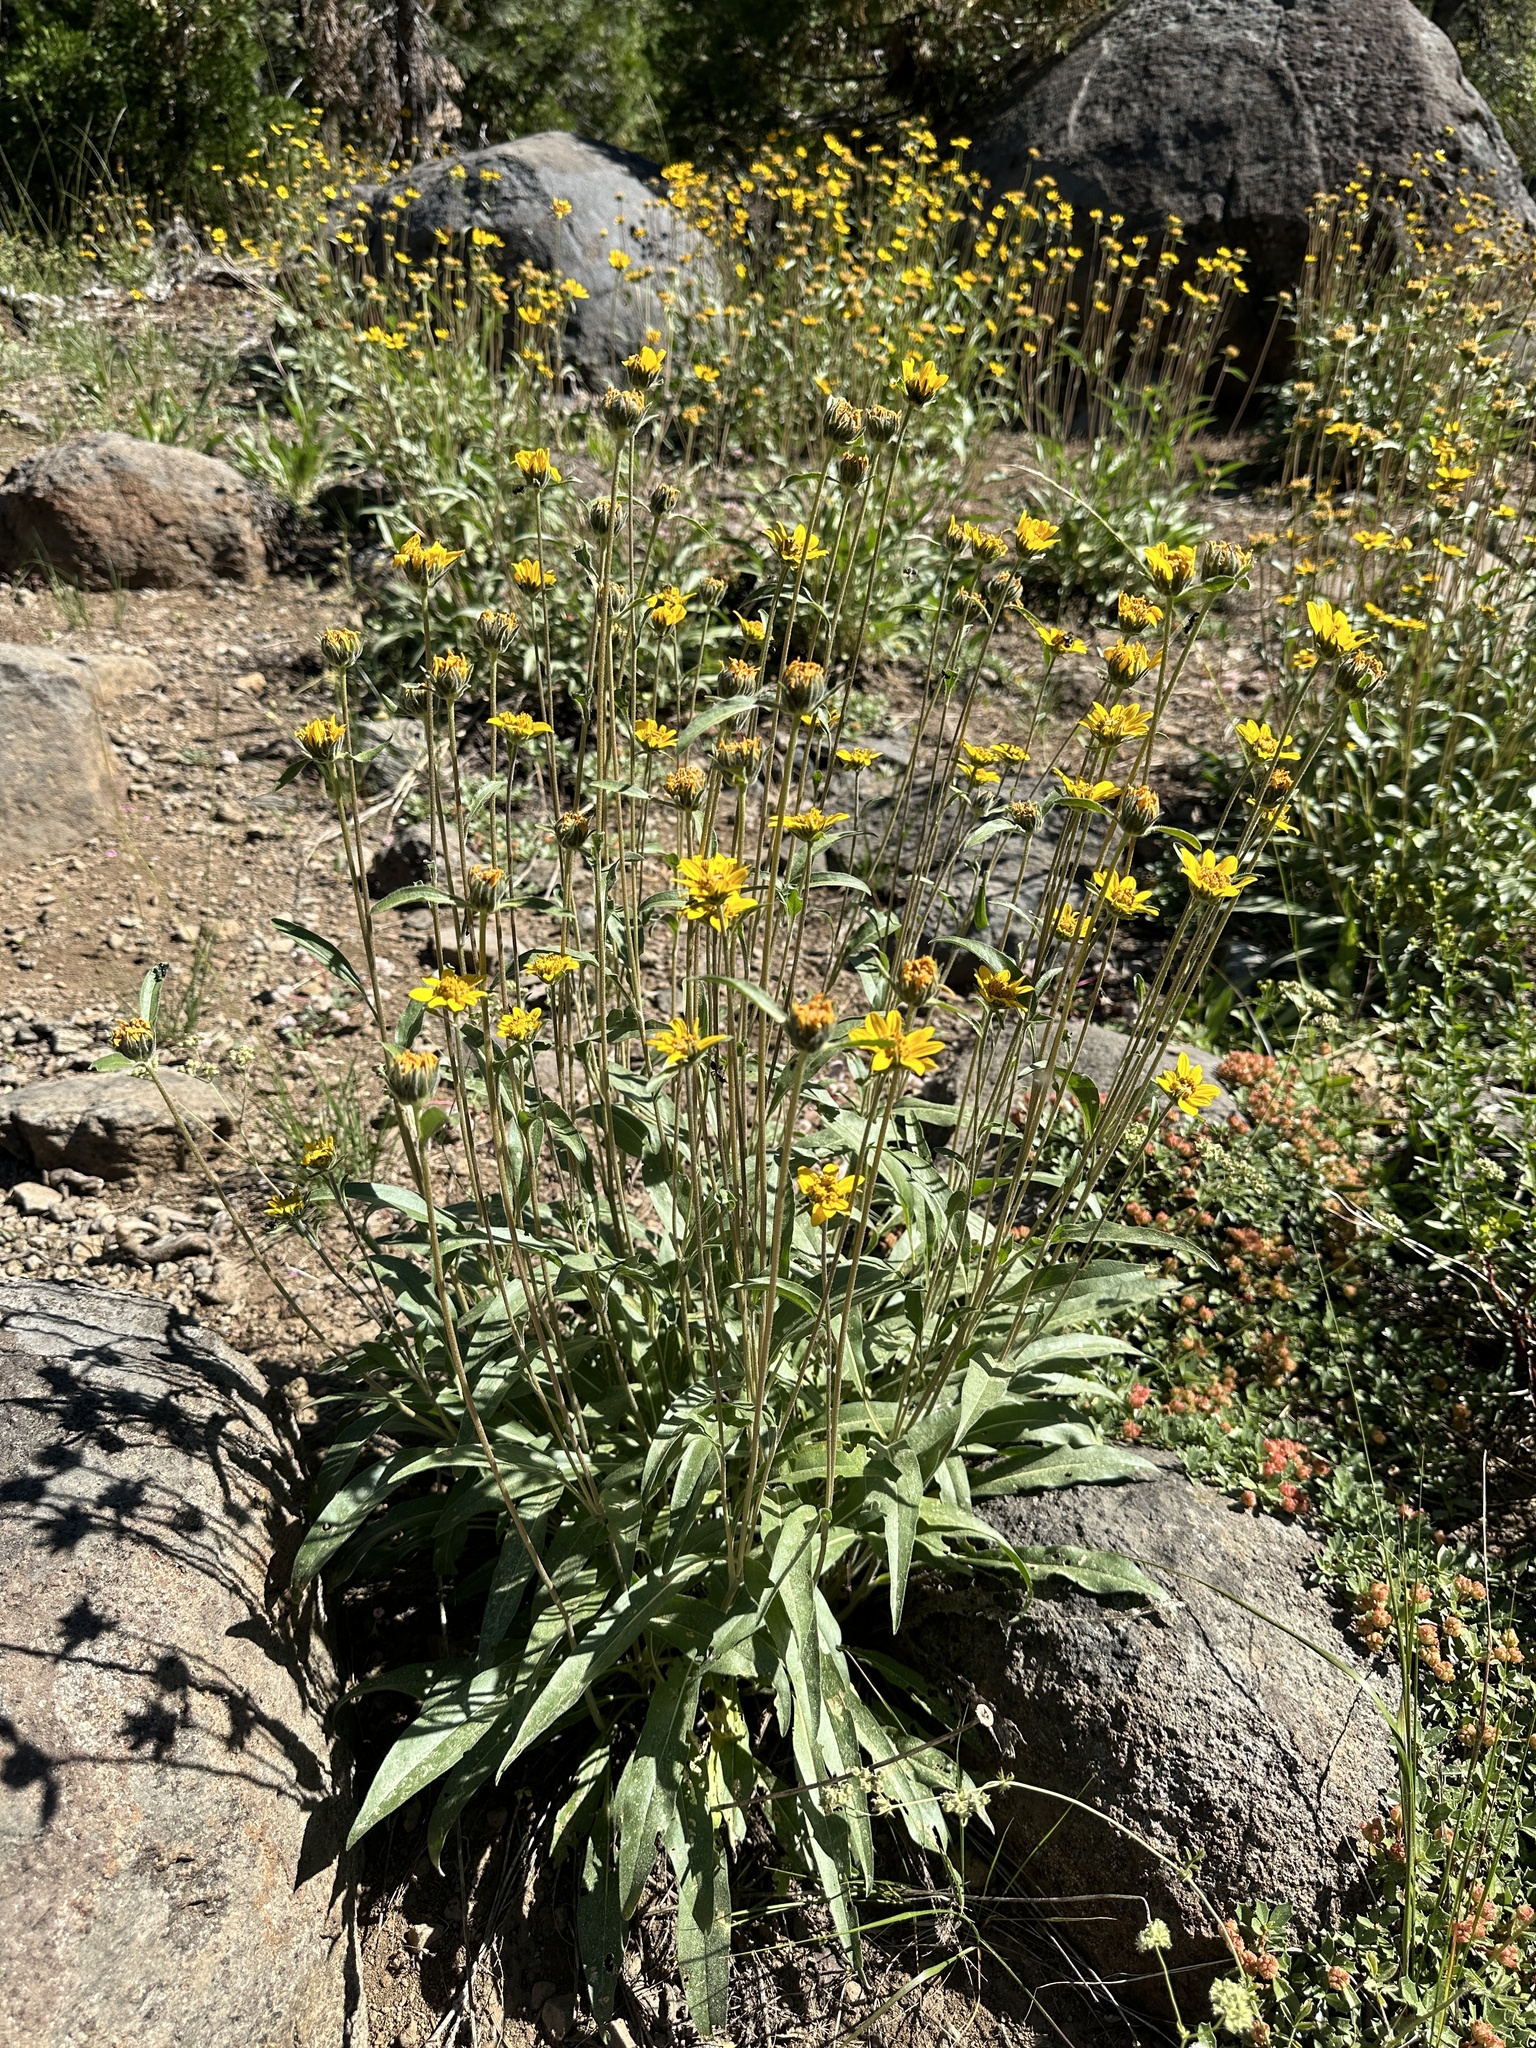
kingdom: Plantae
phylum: Tracheophyta
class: Magnoliopsida
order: Asterales
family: Asteraceae
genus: Helianthella
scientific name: Helianthella californica
